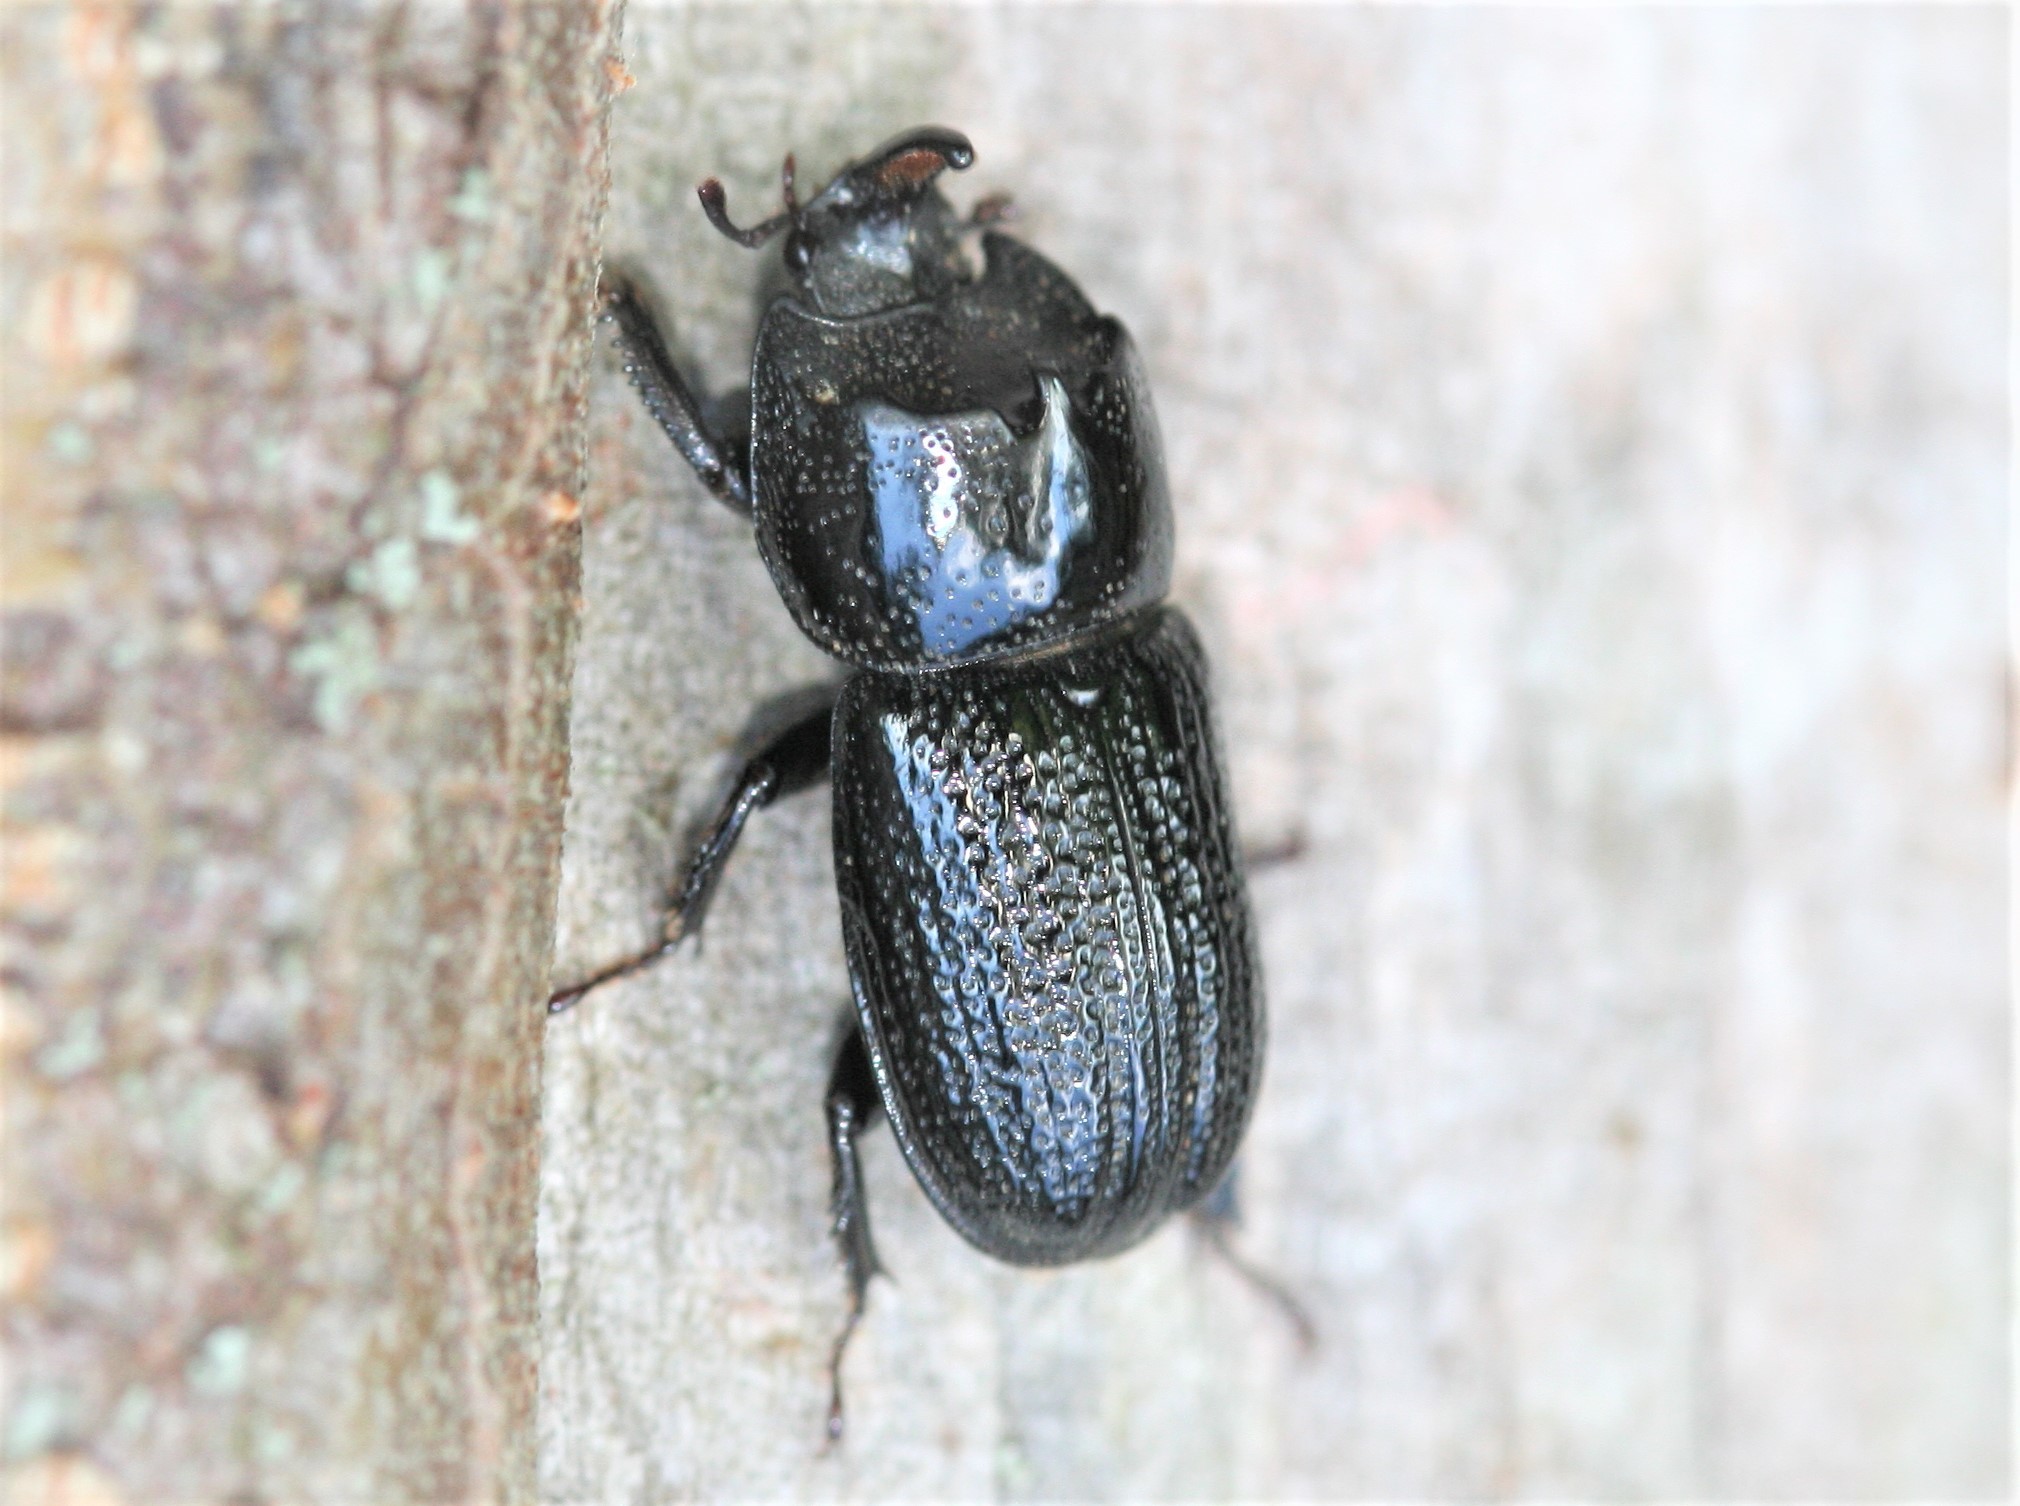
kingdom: Animalia
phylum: Arthropoda
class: Insecta
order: Coleoptera
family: Lucanidae
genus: Sinodendron
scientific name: Sinodendron cylindricum
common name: Rhinoceros beetle
